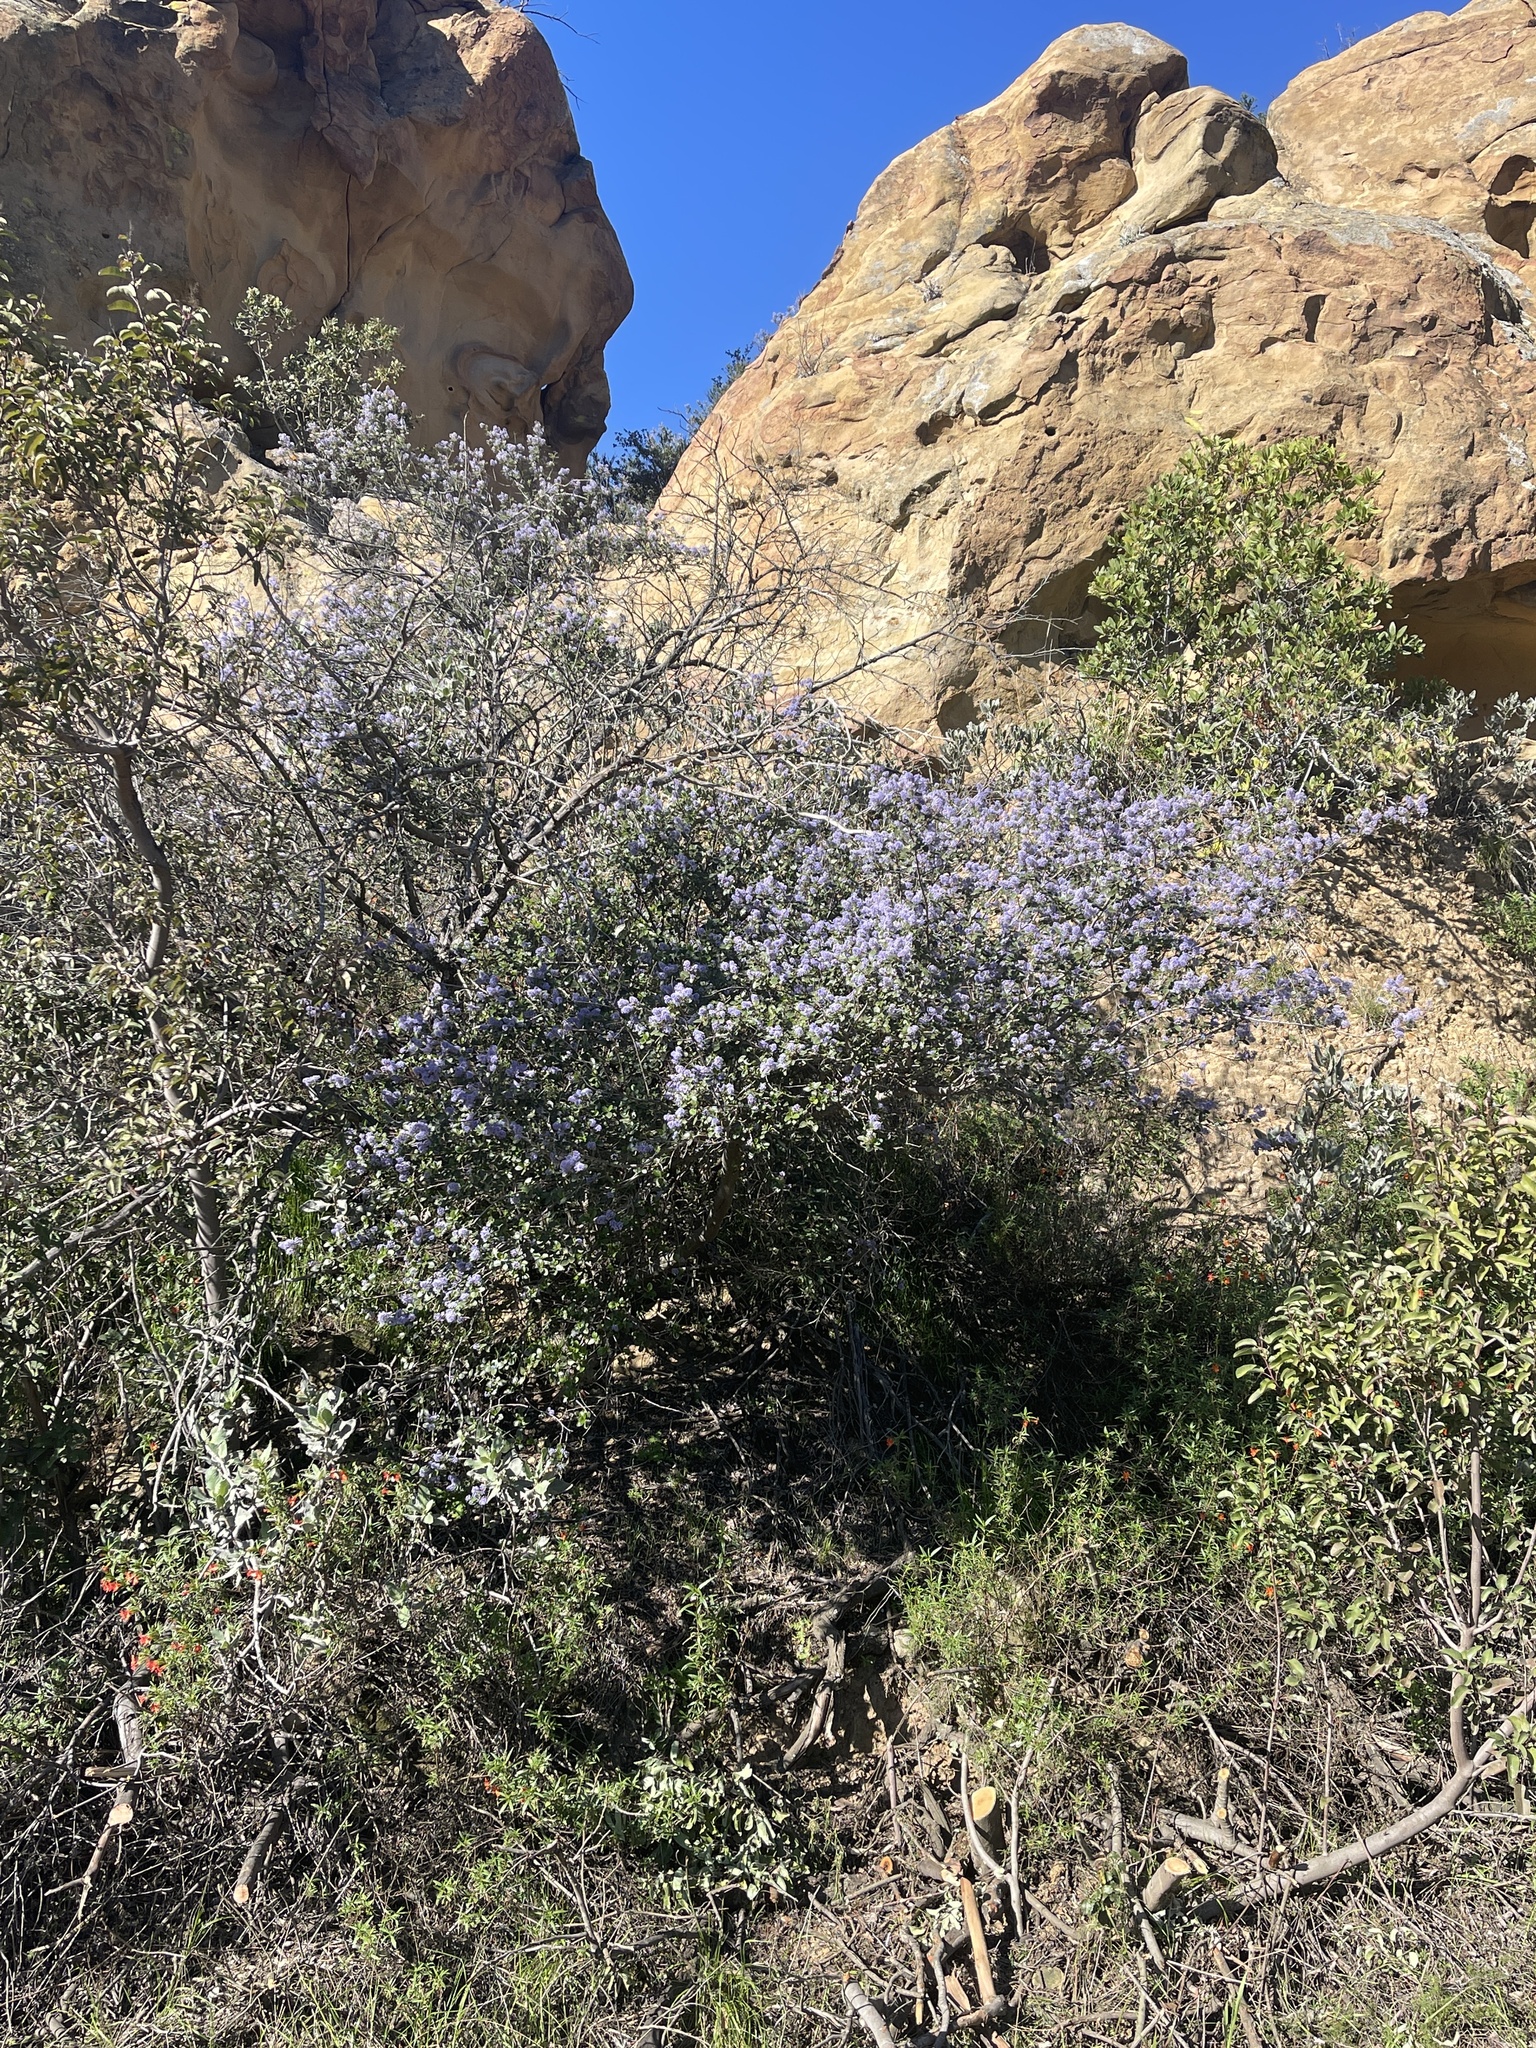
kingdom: Plantae
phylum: Tracheophyta
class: Magnoliopsida
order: Rosales
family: Rhamnaceae
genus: Ceanothus
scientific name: Ceanothus tomentosus
